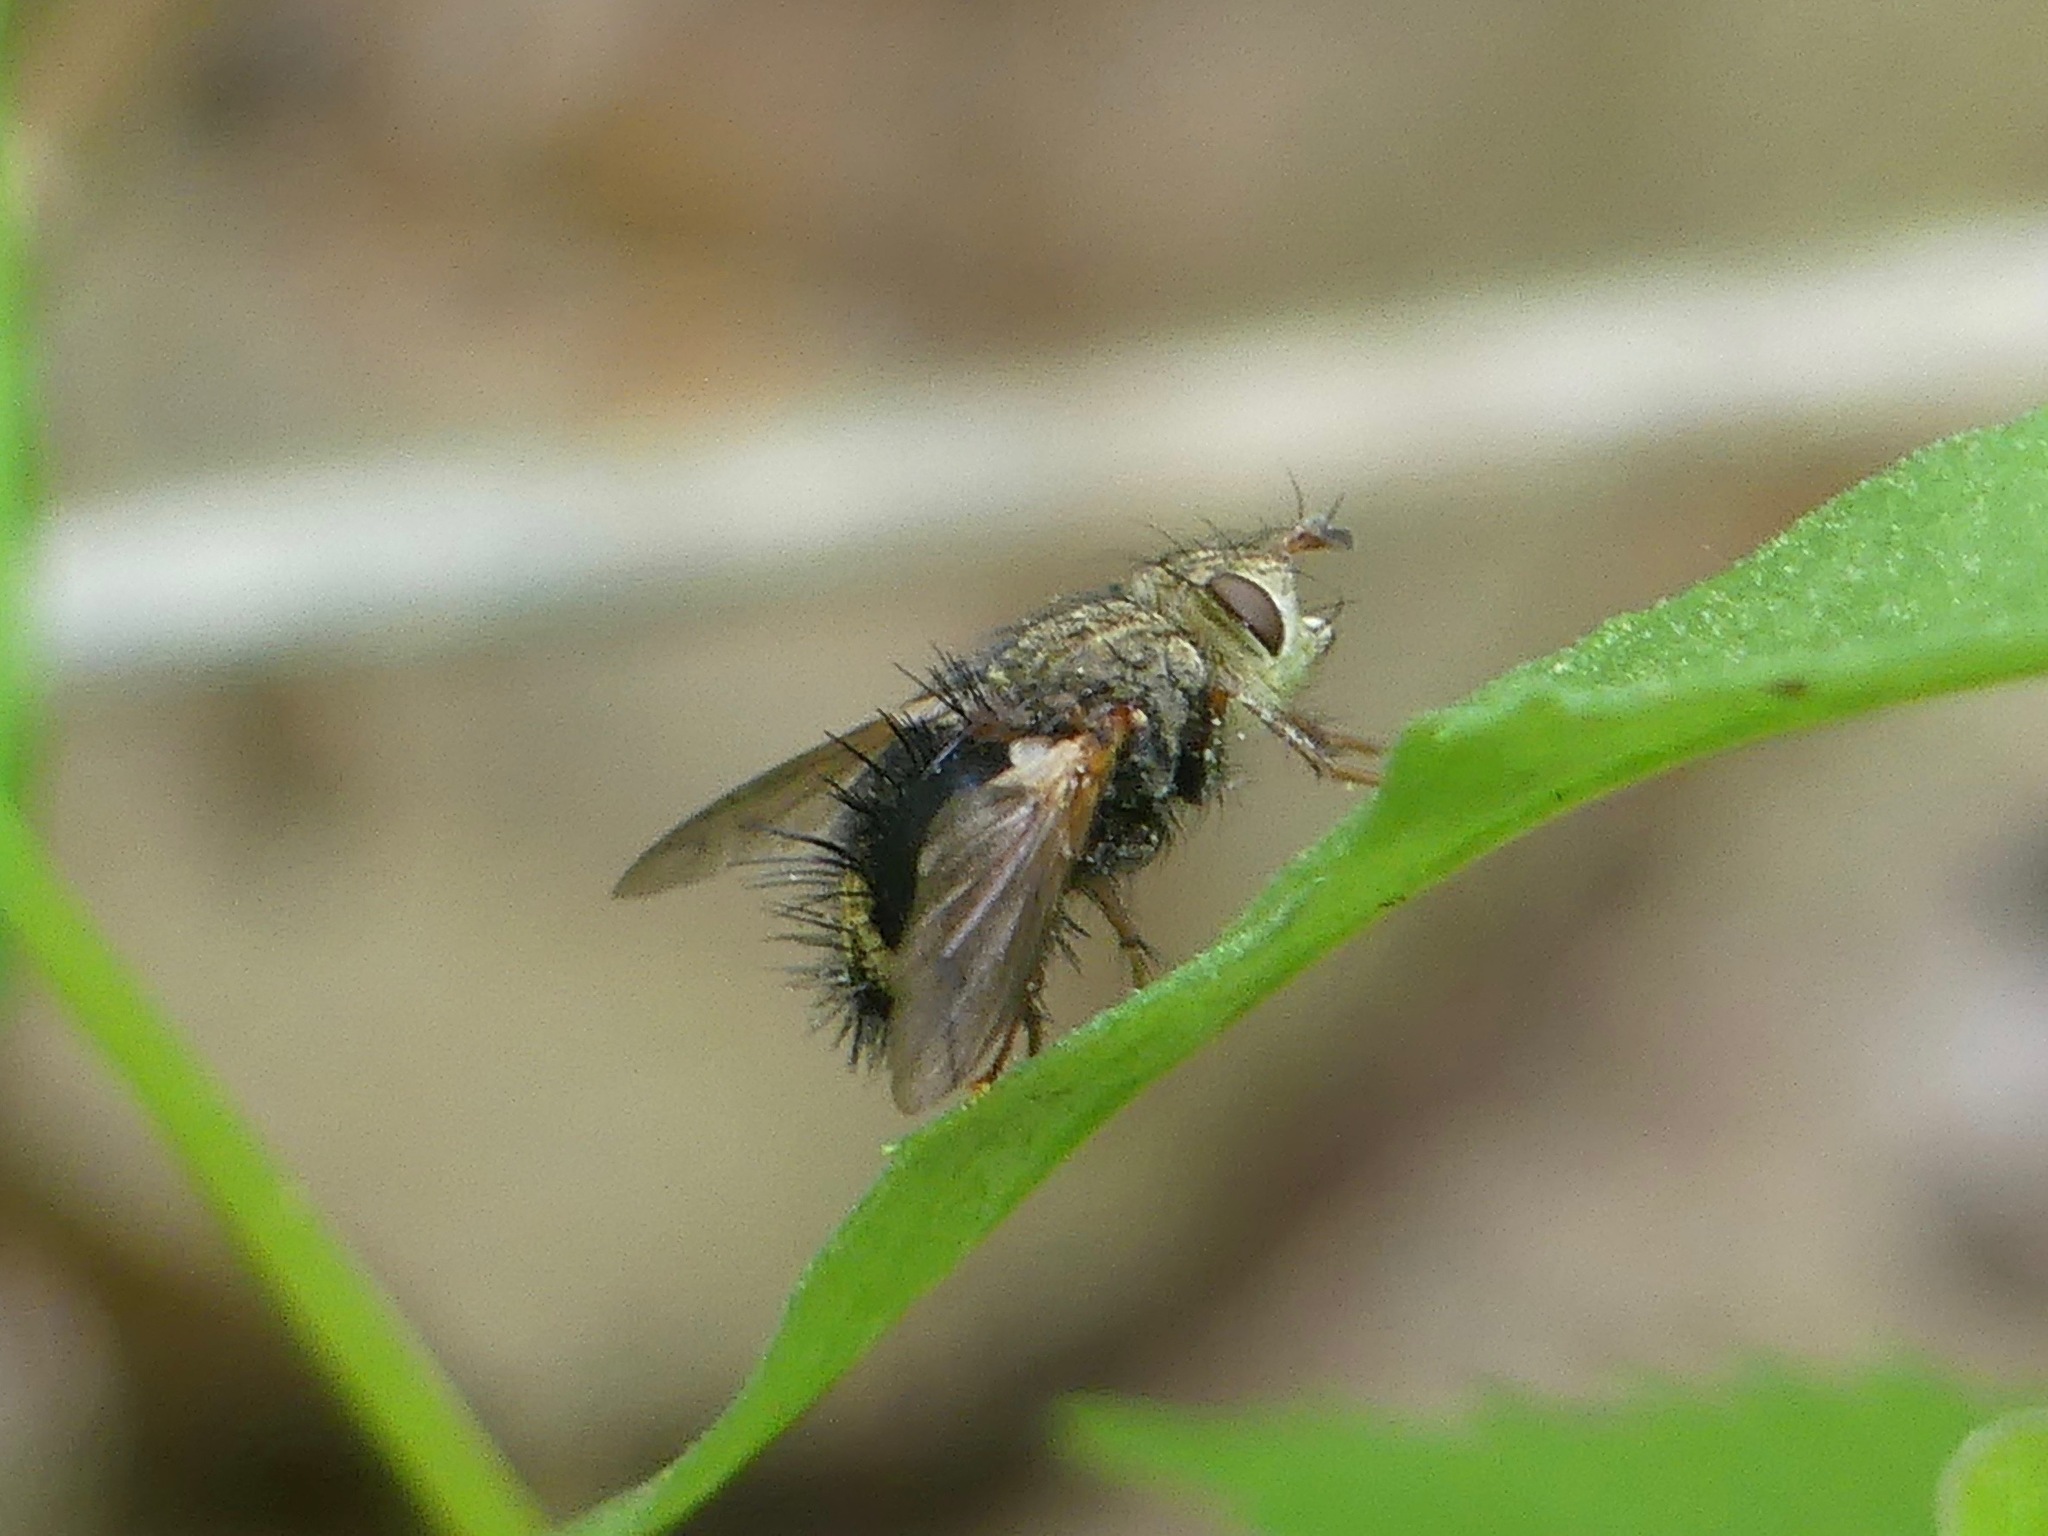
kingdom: Animalia
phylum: Arthropoda
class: Insecta
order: Diptera
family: Tachinidae
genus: Epalpus
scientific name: Epalpus signifer
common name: Early tachinid fly
